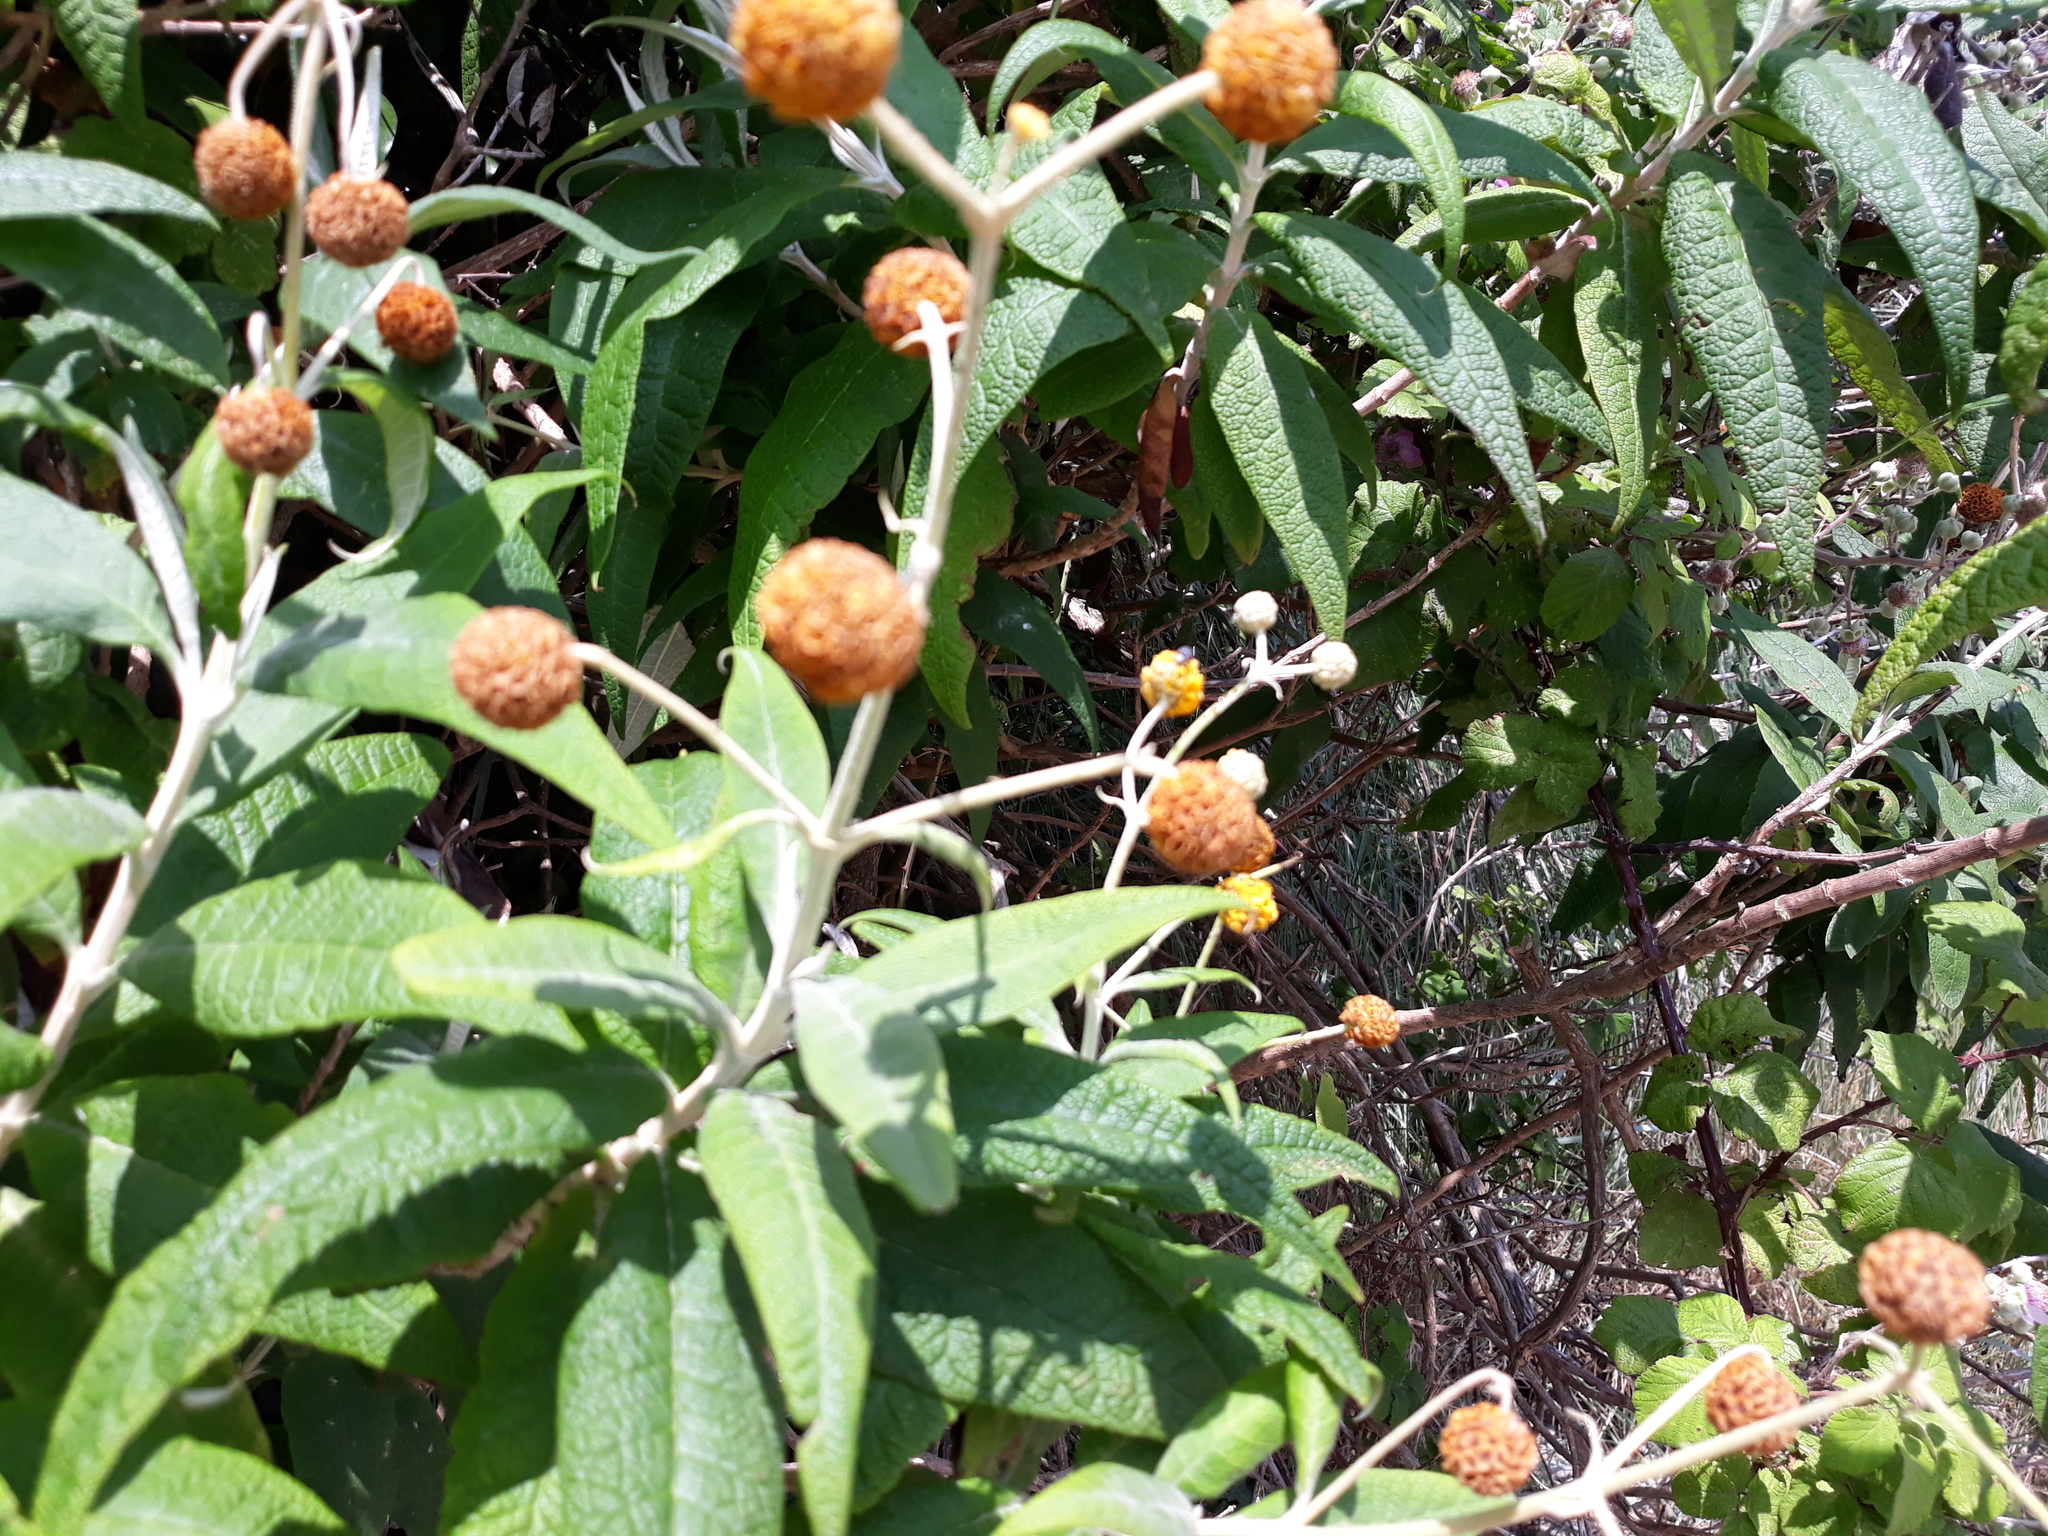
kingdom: Plantae
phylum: Tracheophyta
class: Magnoliopsida
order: Lamiales
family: Scrophulariaceae
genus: Buddleja
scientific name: Buddleja globosa
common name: Orange-ball-tree
